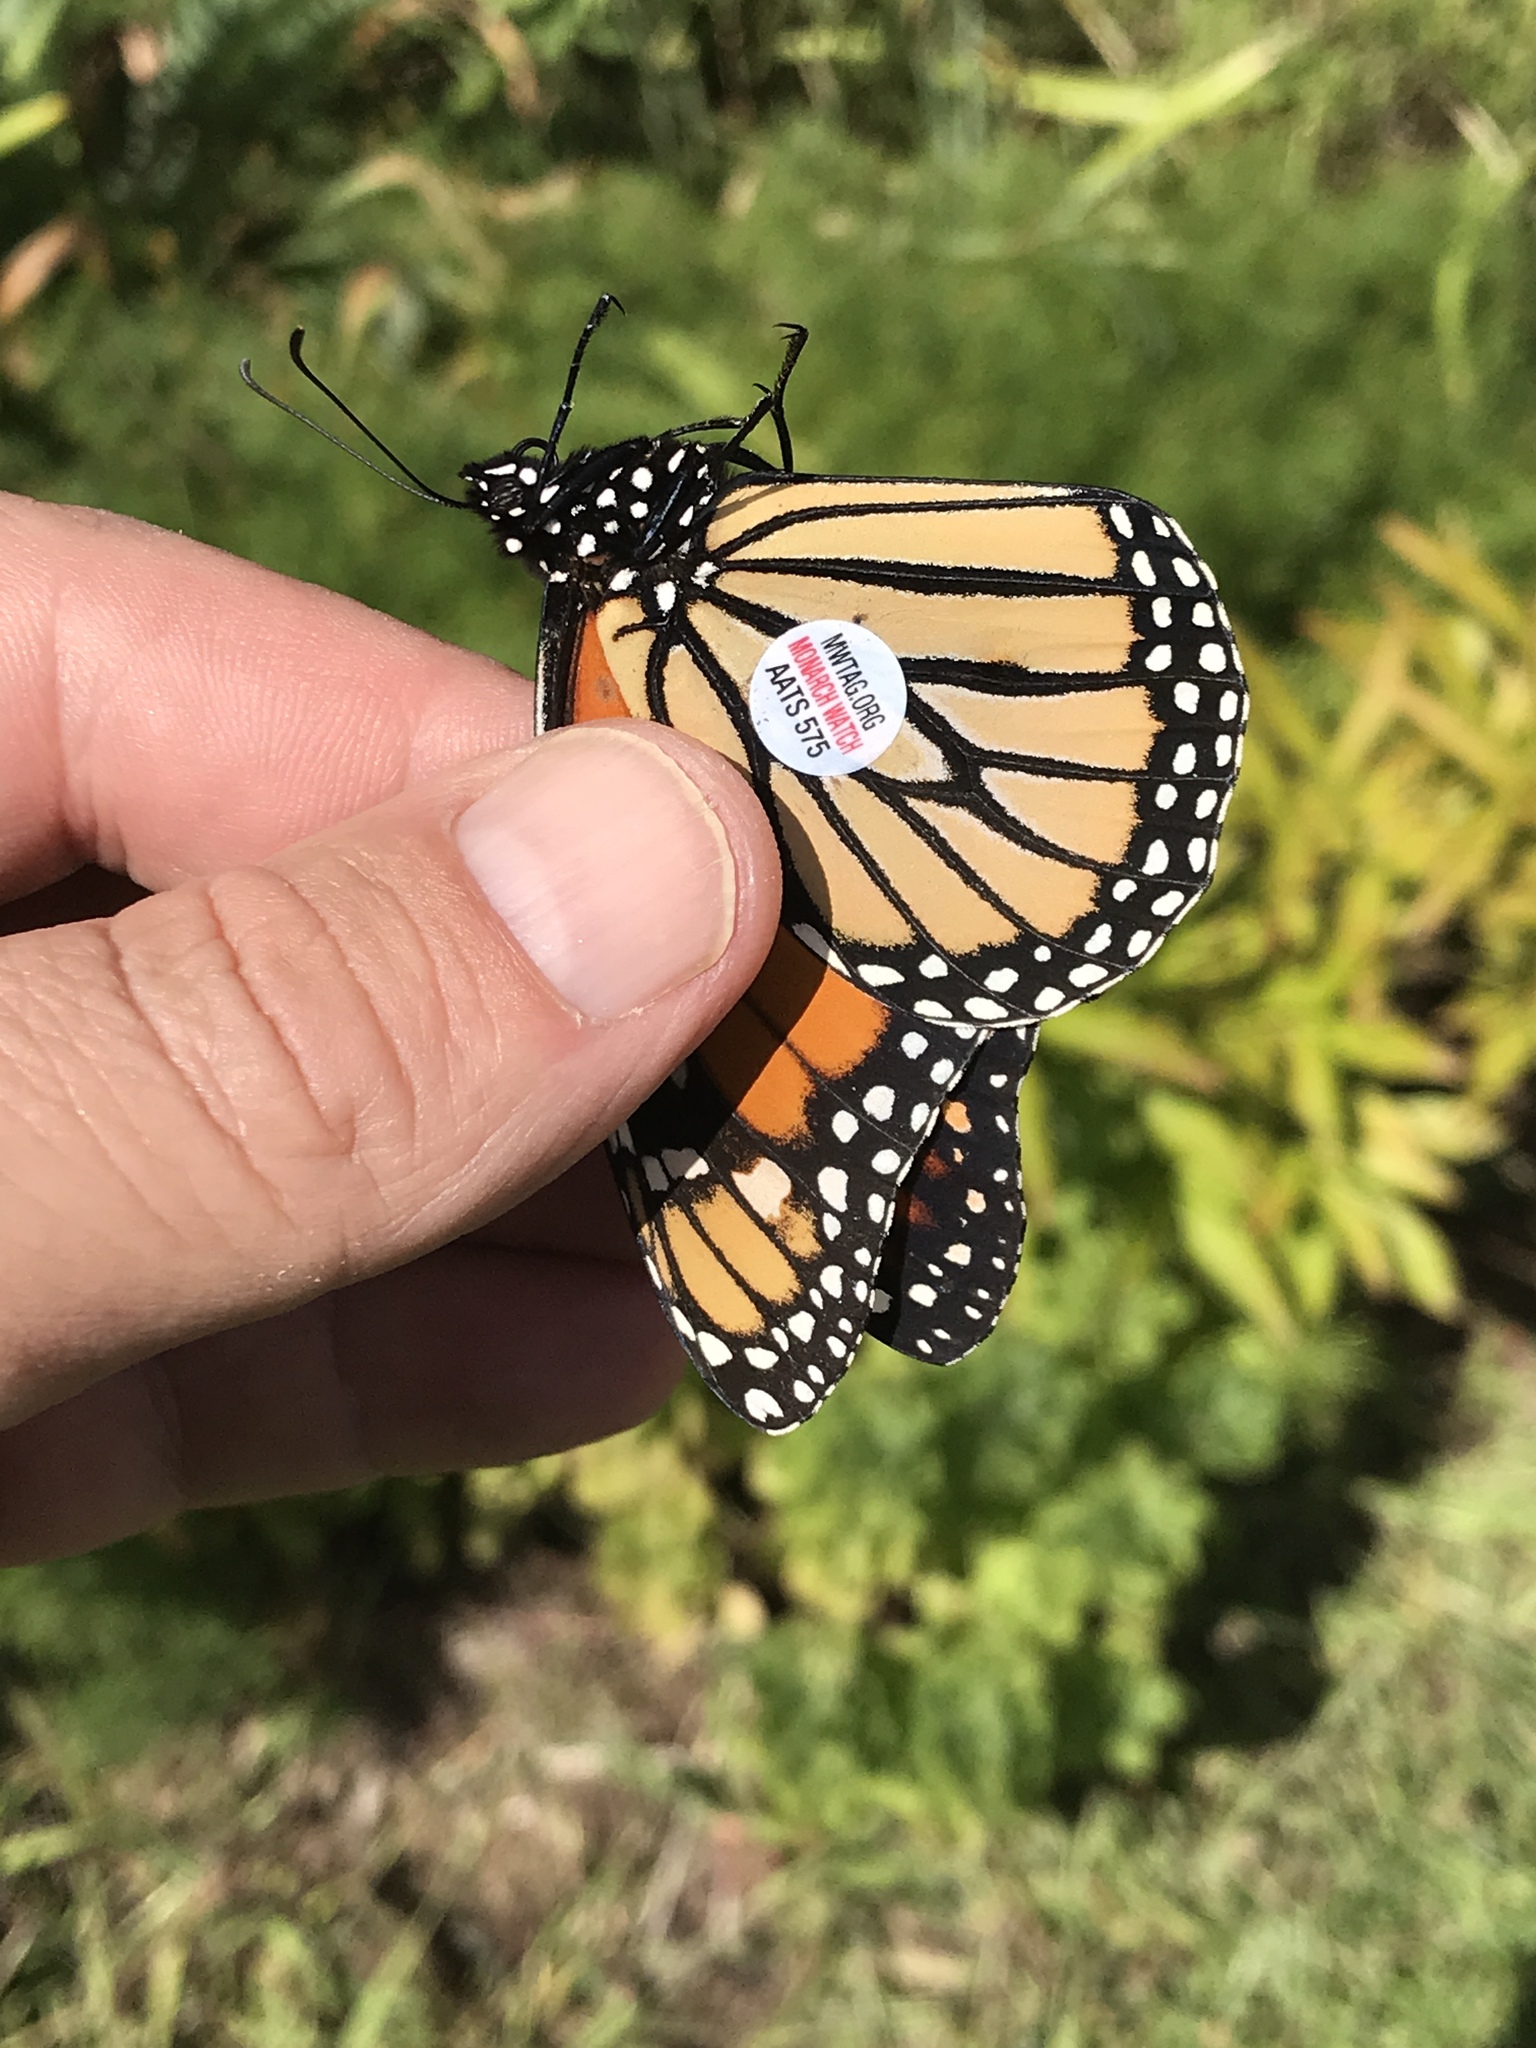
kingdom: Animalia
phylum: Arthropoda
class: Insecta
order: Lepidoptera
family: Nymphalidae
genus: Danaus
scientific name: Danaus plexippus
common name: Monarch
